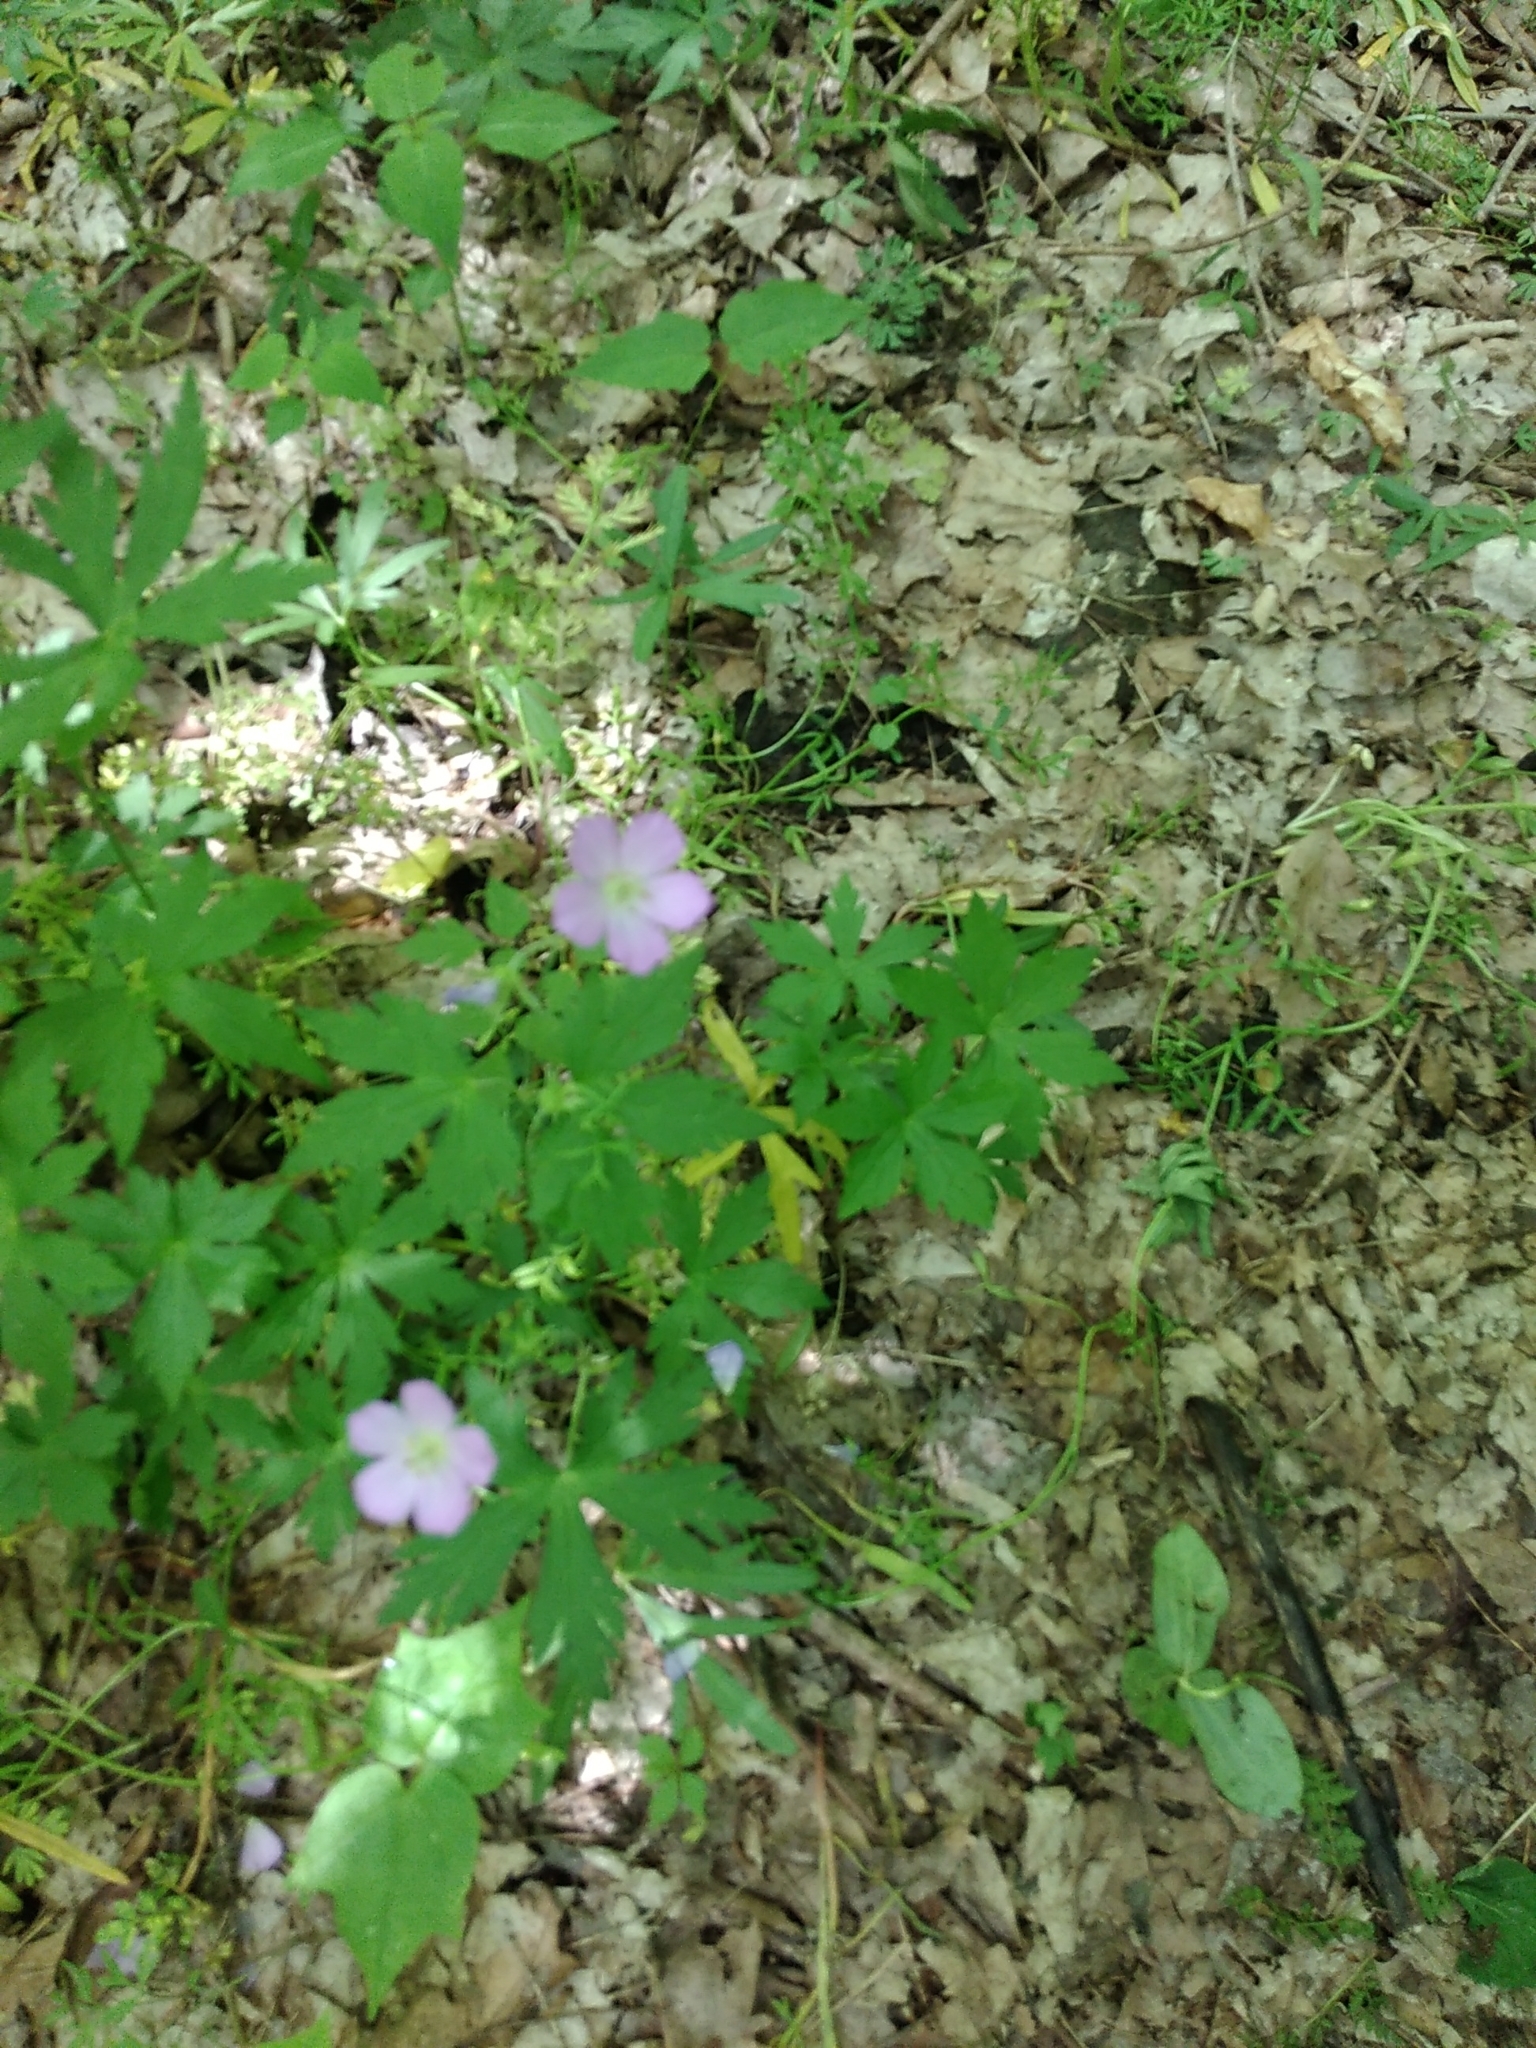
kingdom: Plantae
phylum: Tracheophyta
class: Magnoliopsida
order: Geraniales
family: Geraniaceae
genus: Geranium
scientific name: Geranium maculatum
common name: Spotted geranium
